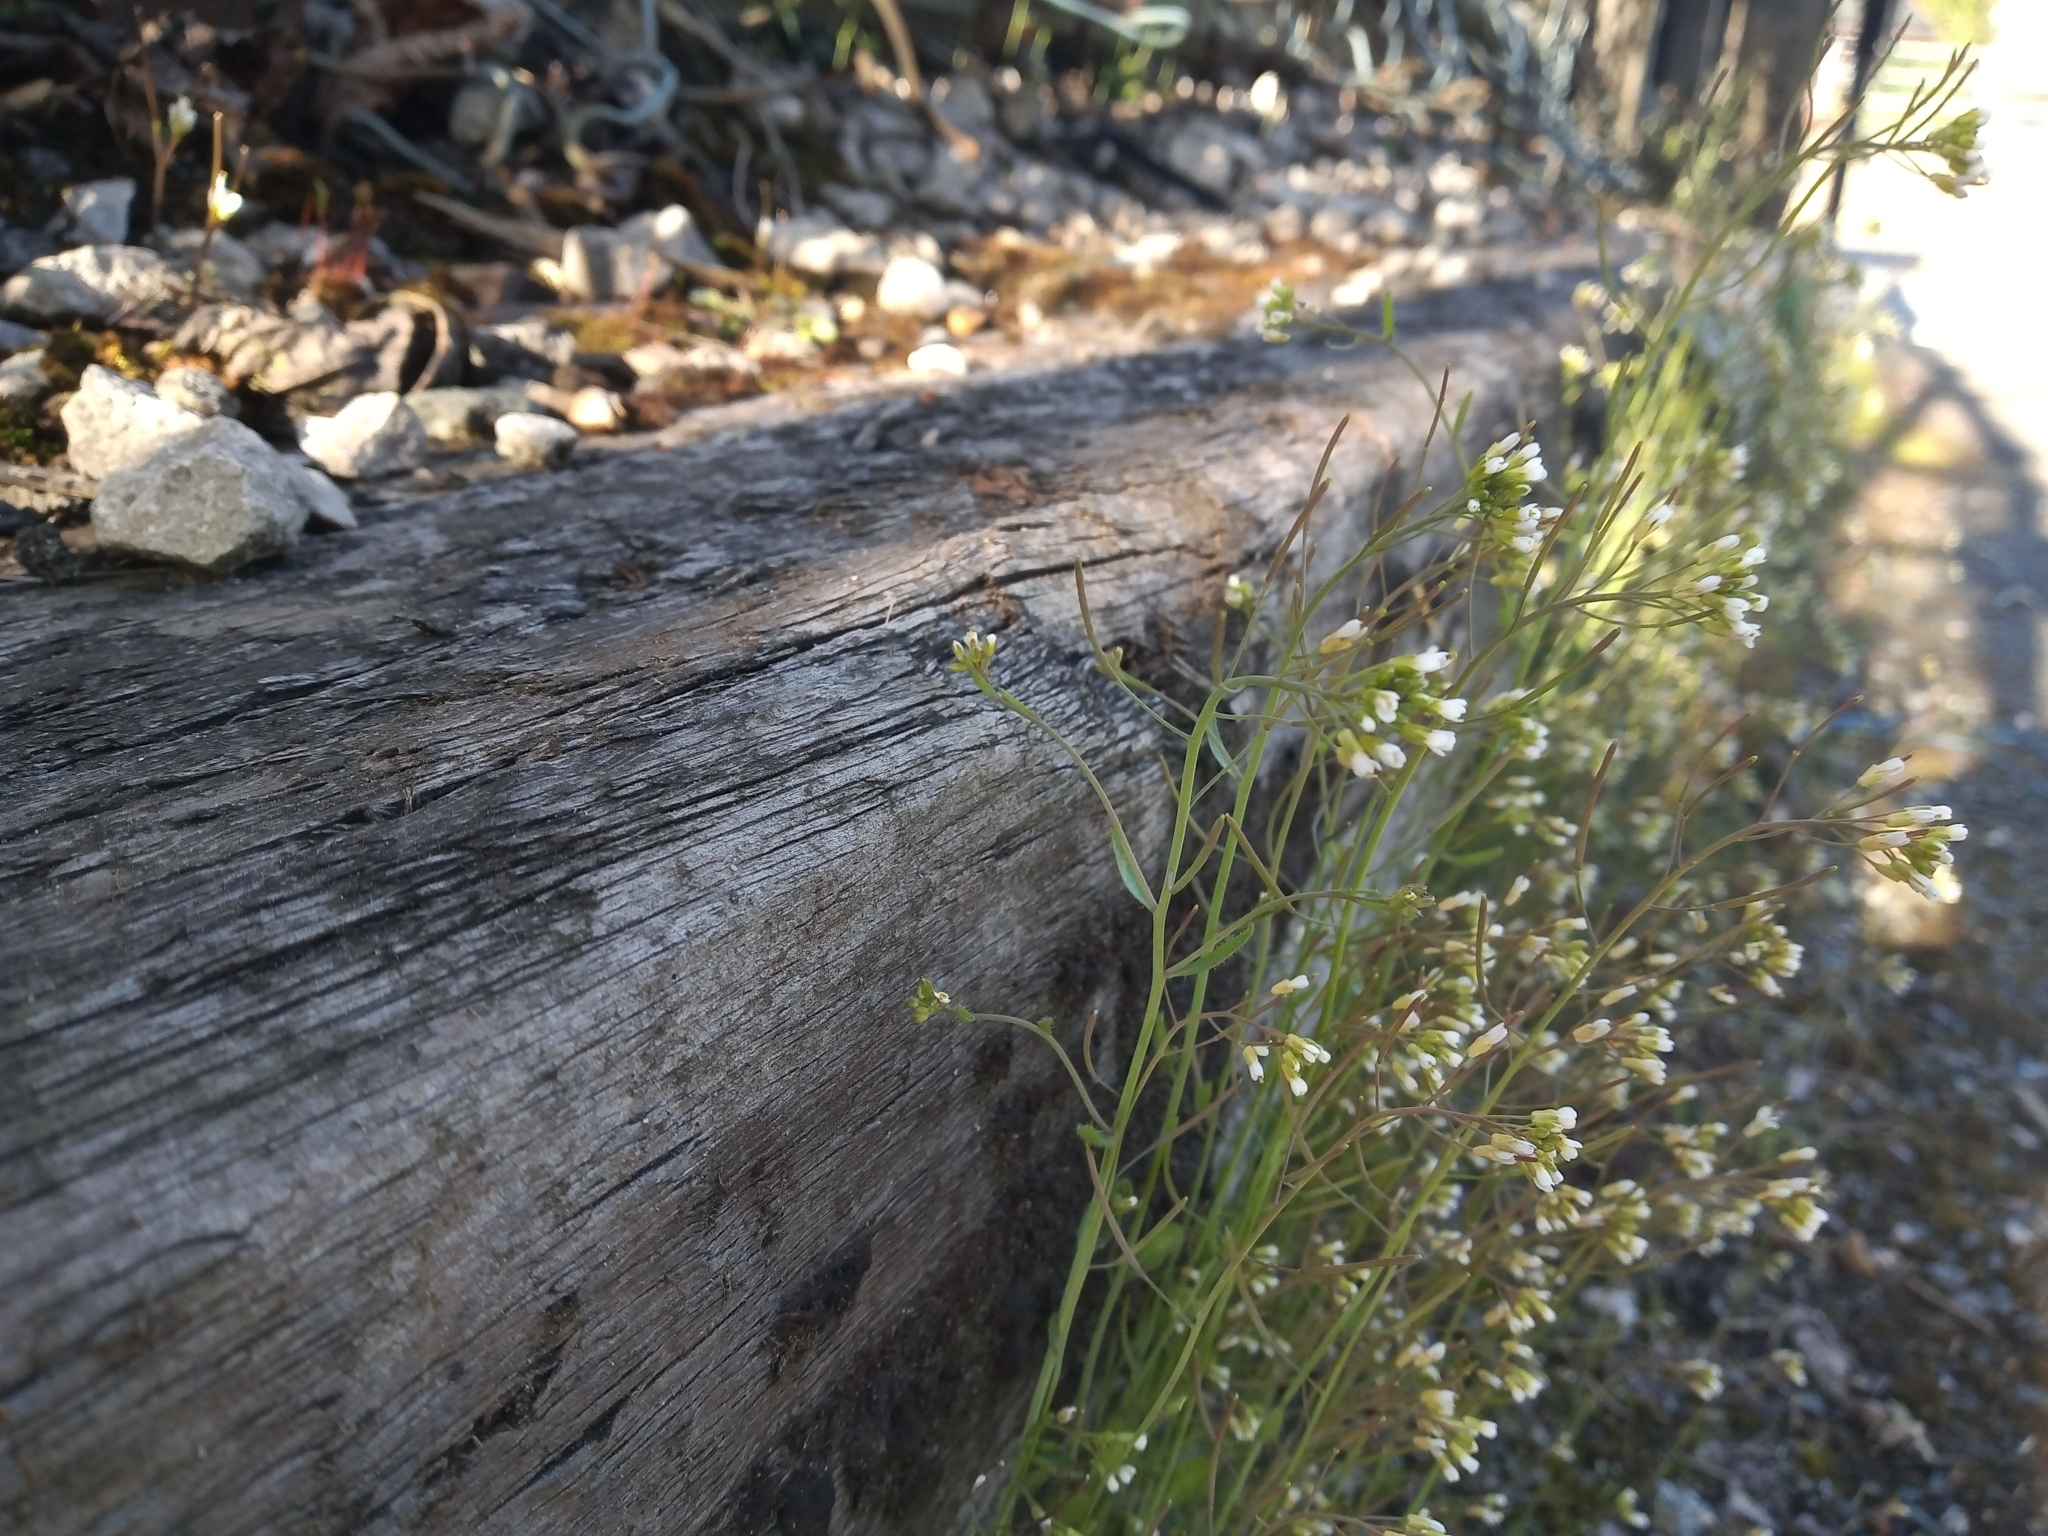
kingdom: Plantae
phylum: Tracheophyta
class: Magnoliopsida
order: Brassicales
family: Brassicaceae
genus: Arabidopsis
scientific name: Arabidopsis thaliana
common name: Thale cress
